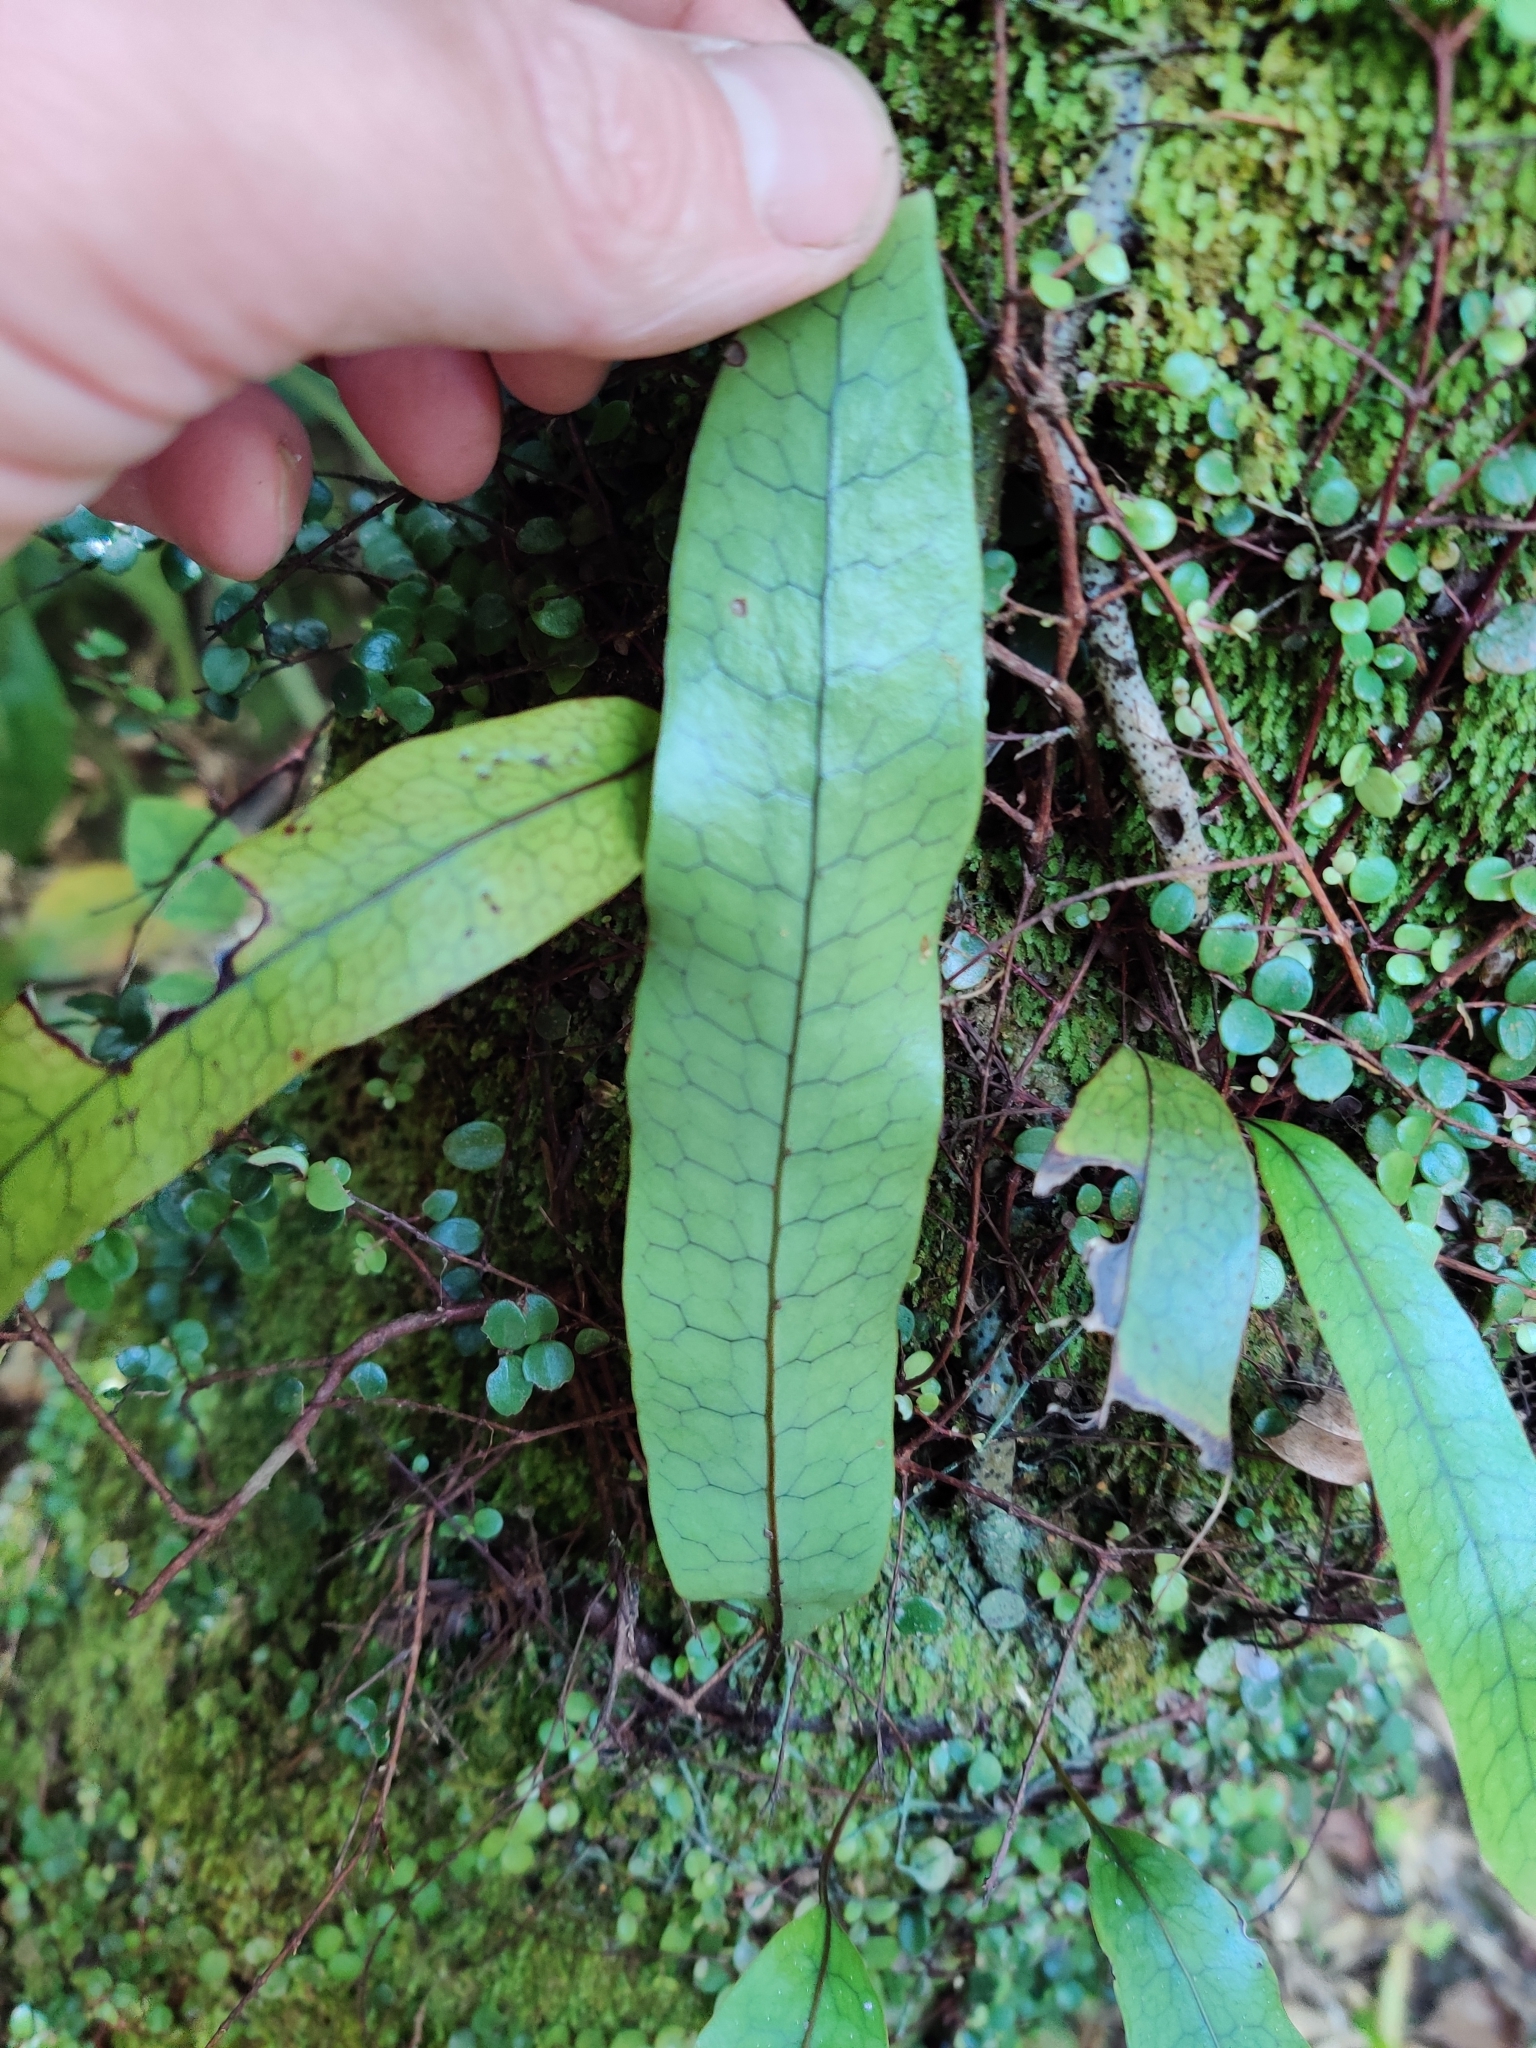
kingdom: Plantae
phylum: Tracheophyta
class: Polypodiopsida
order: Polypodiales
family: Polypodiaceae
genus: Lecanopteris
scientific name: Lecanopteris pustulata
